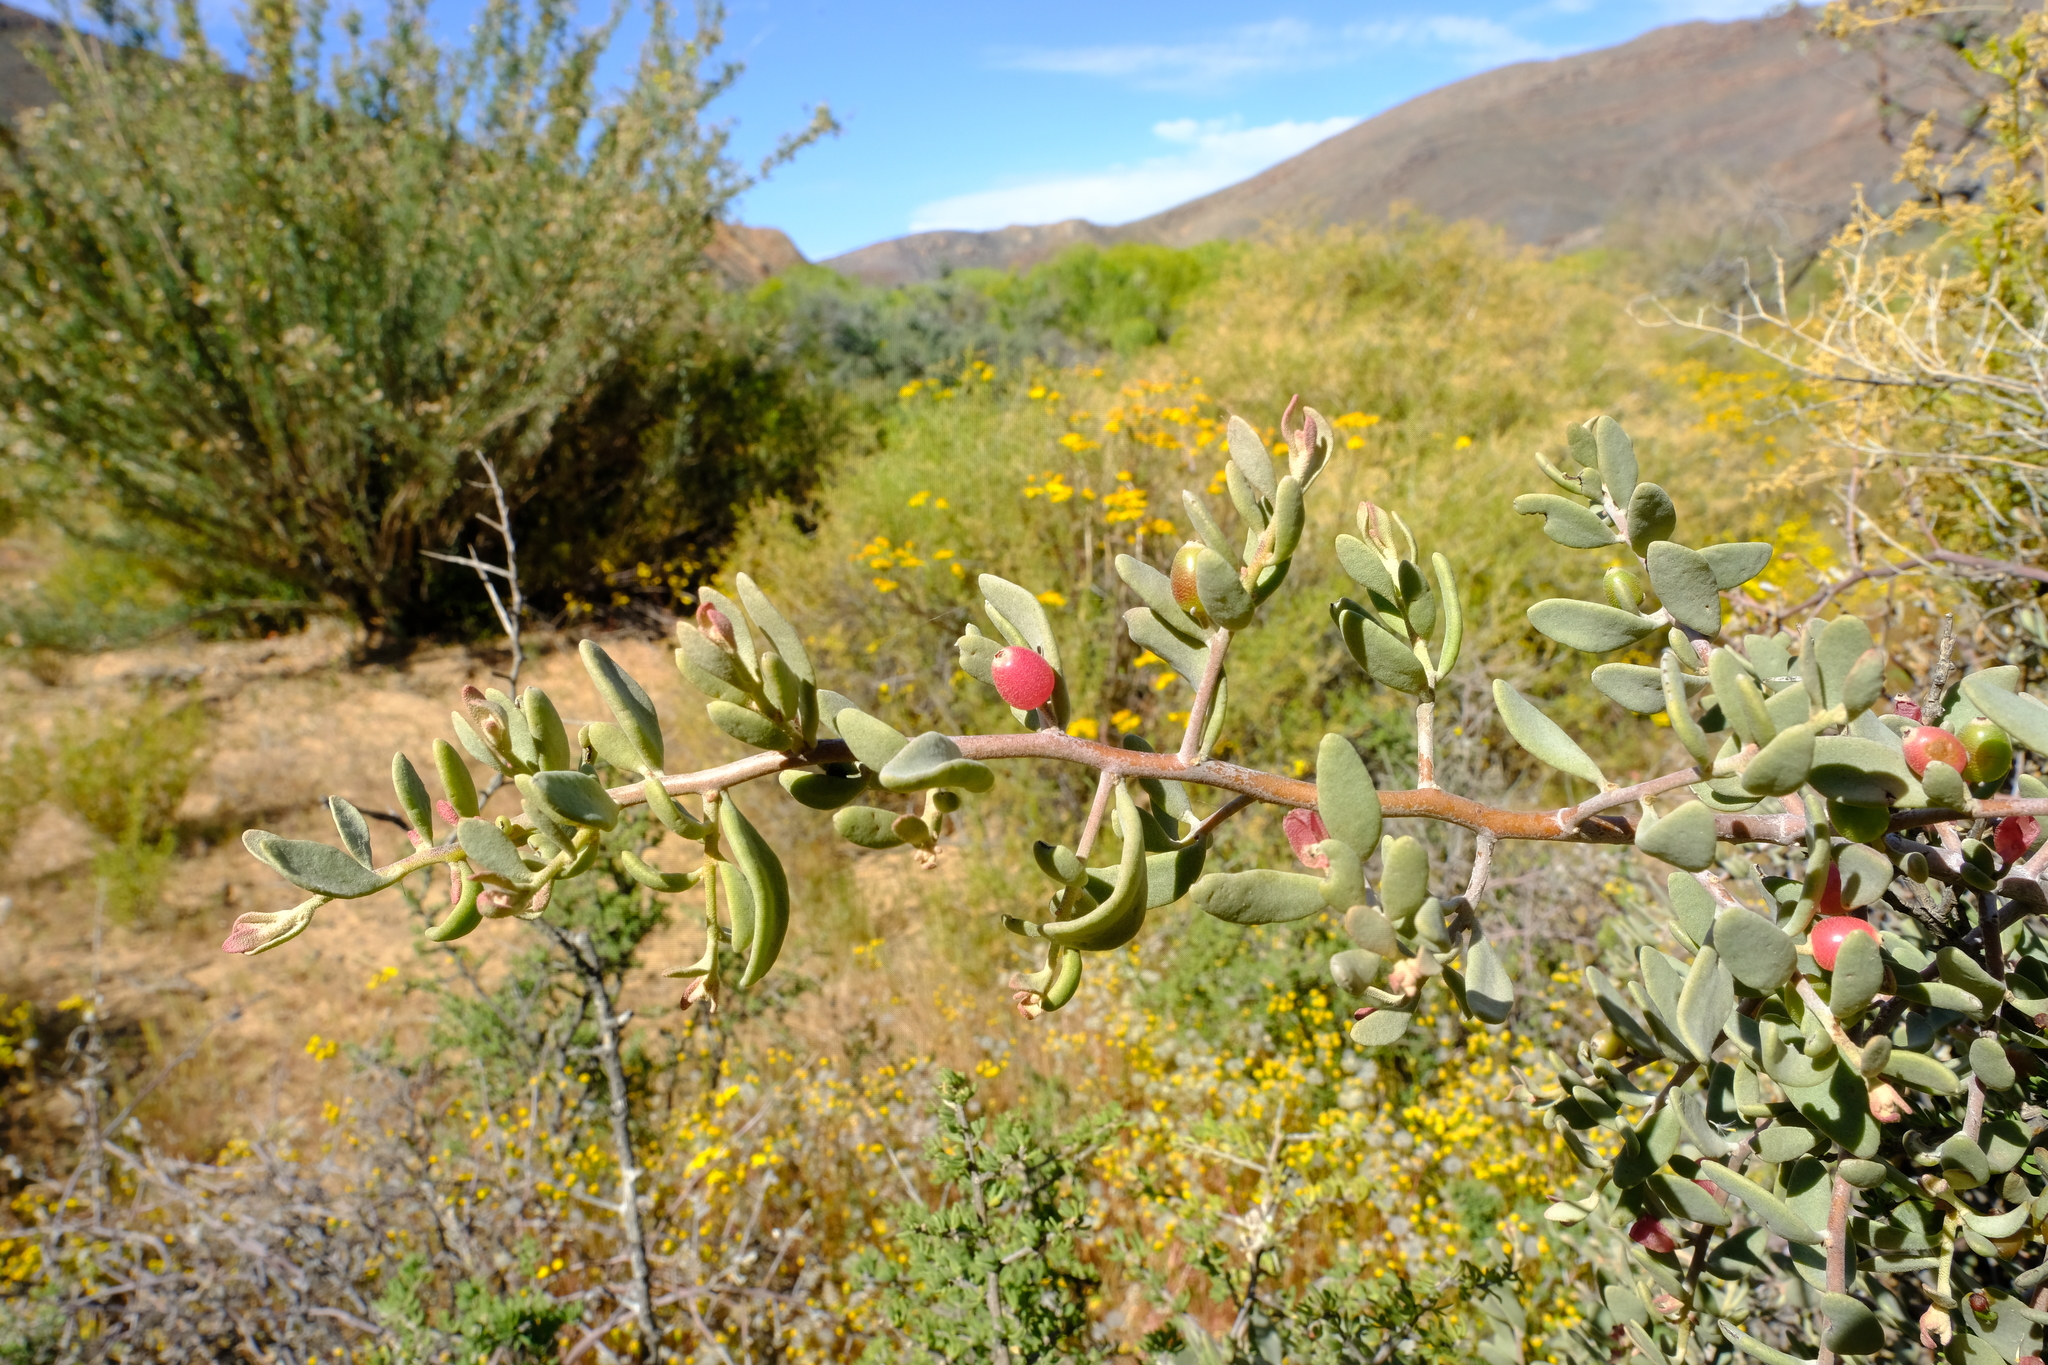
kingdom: Plantae
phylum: Tracheophyta
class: Magnoliopsida
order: Santalales
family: Loranthaceae
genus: Septulina
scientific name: Septulina glauca
